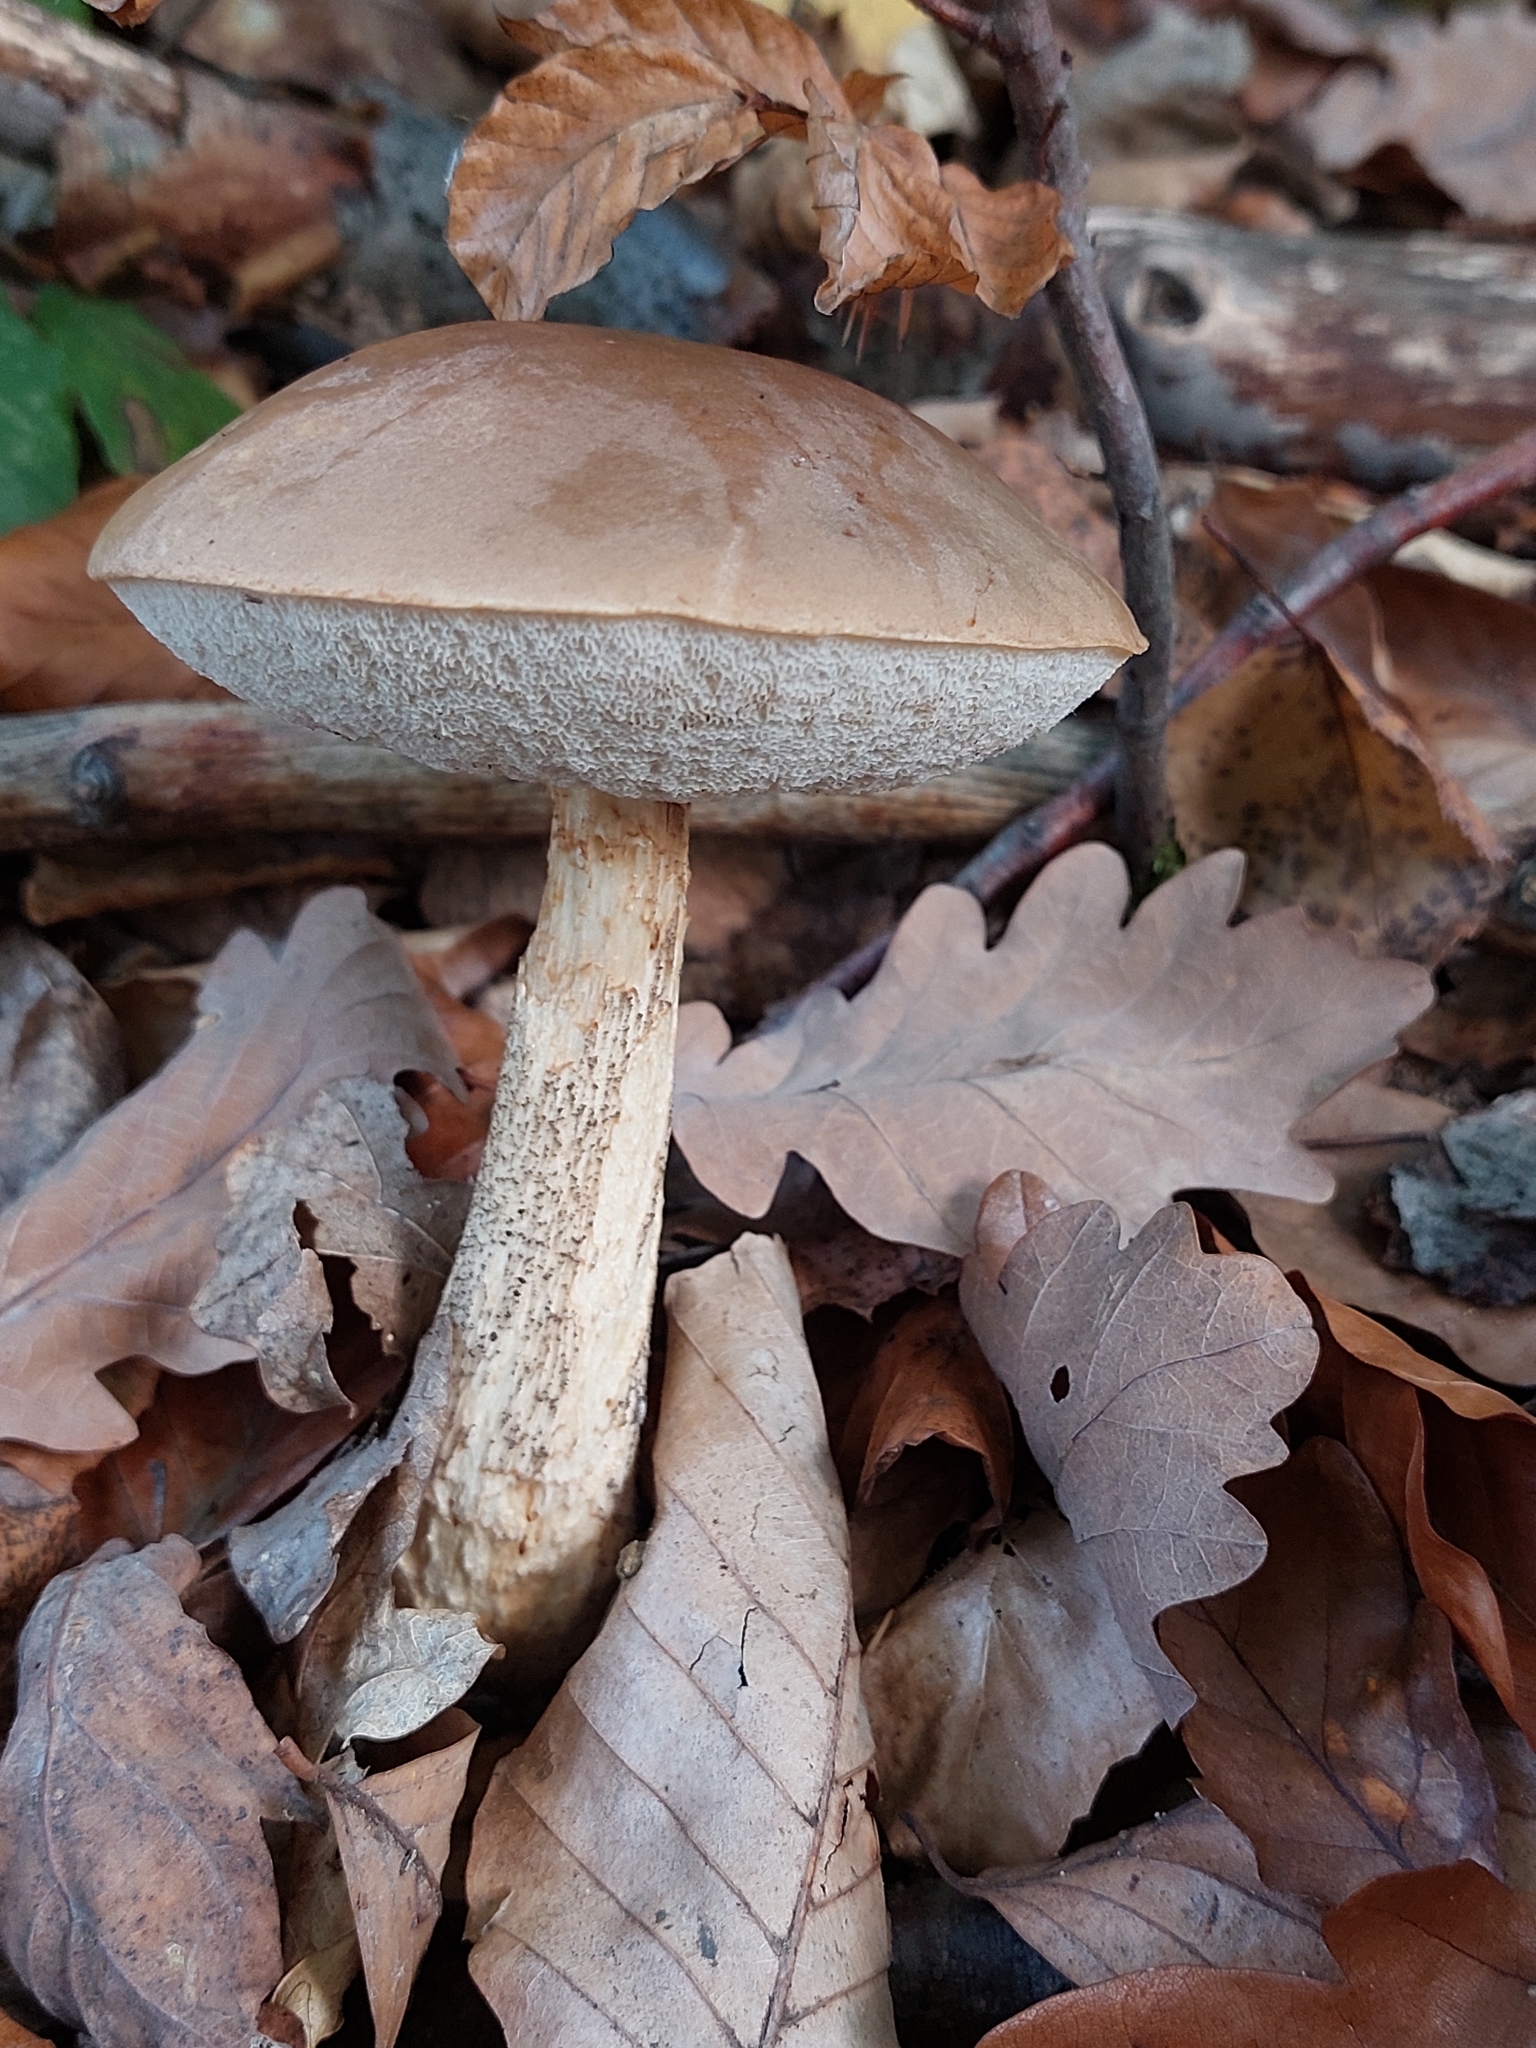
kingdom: Fungi
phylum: Basidiomycota
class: Agaricomycetes
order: Boletales
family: Boletaceae
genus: Leccinum
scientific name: Leccinum scabrum
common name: Blushing bolete
